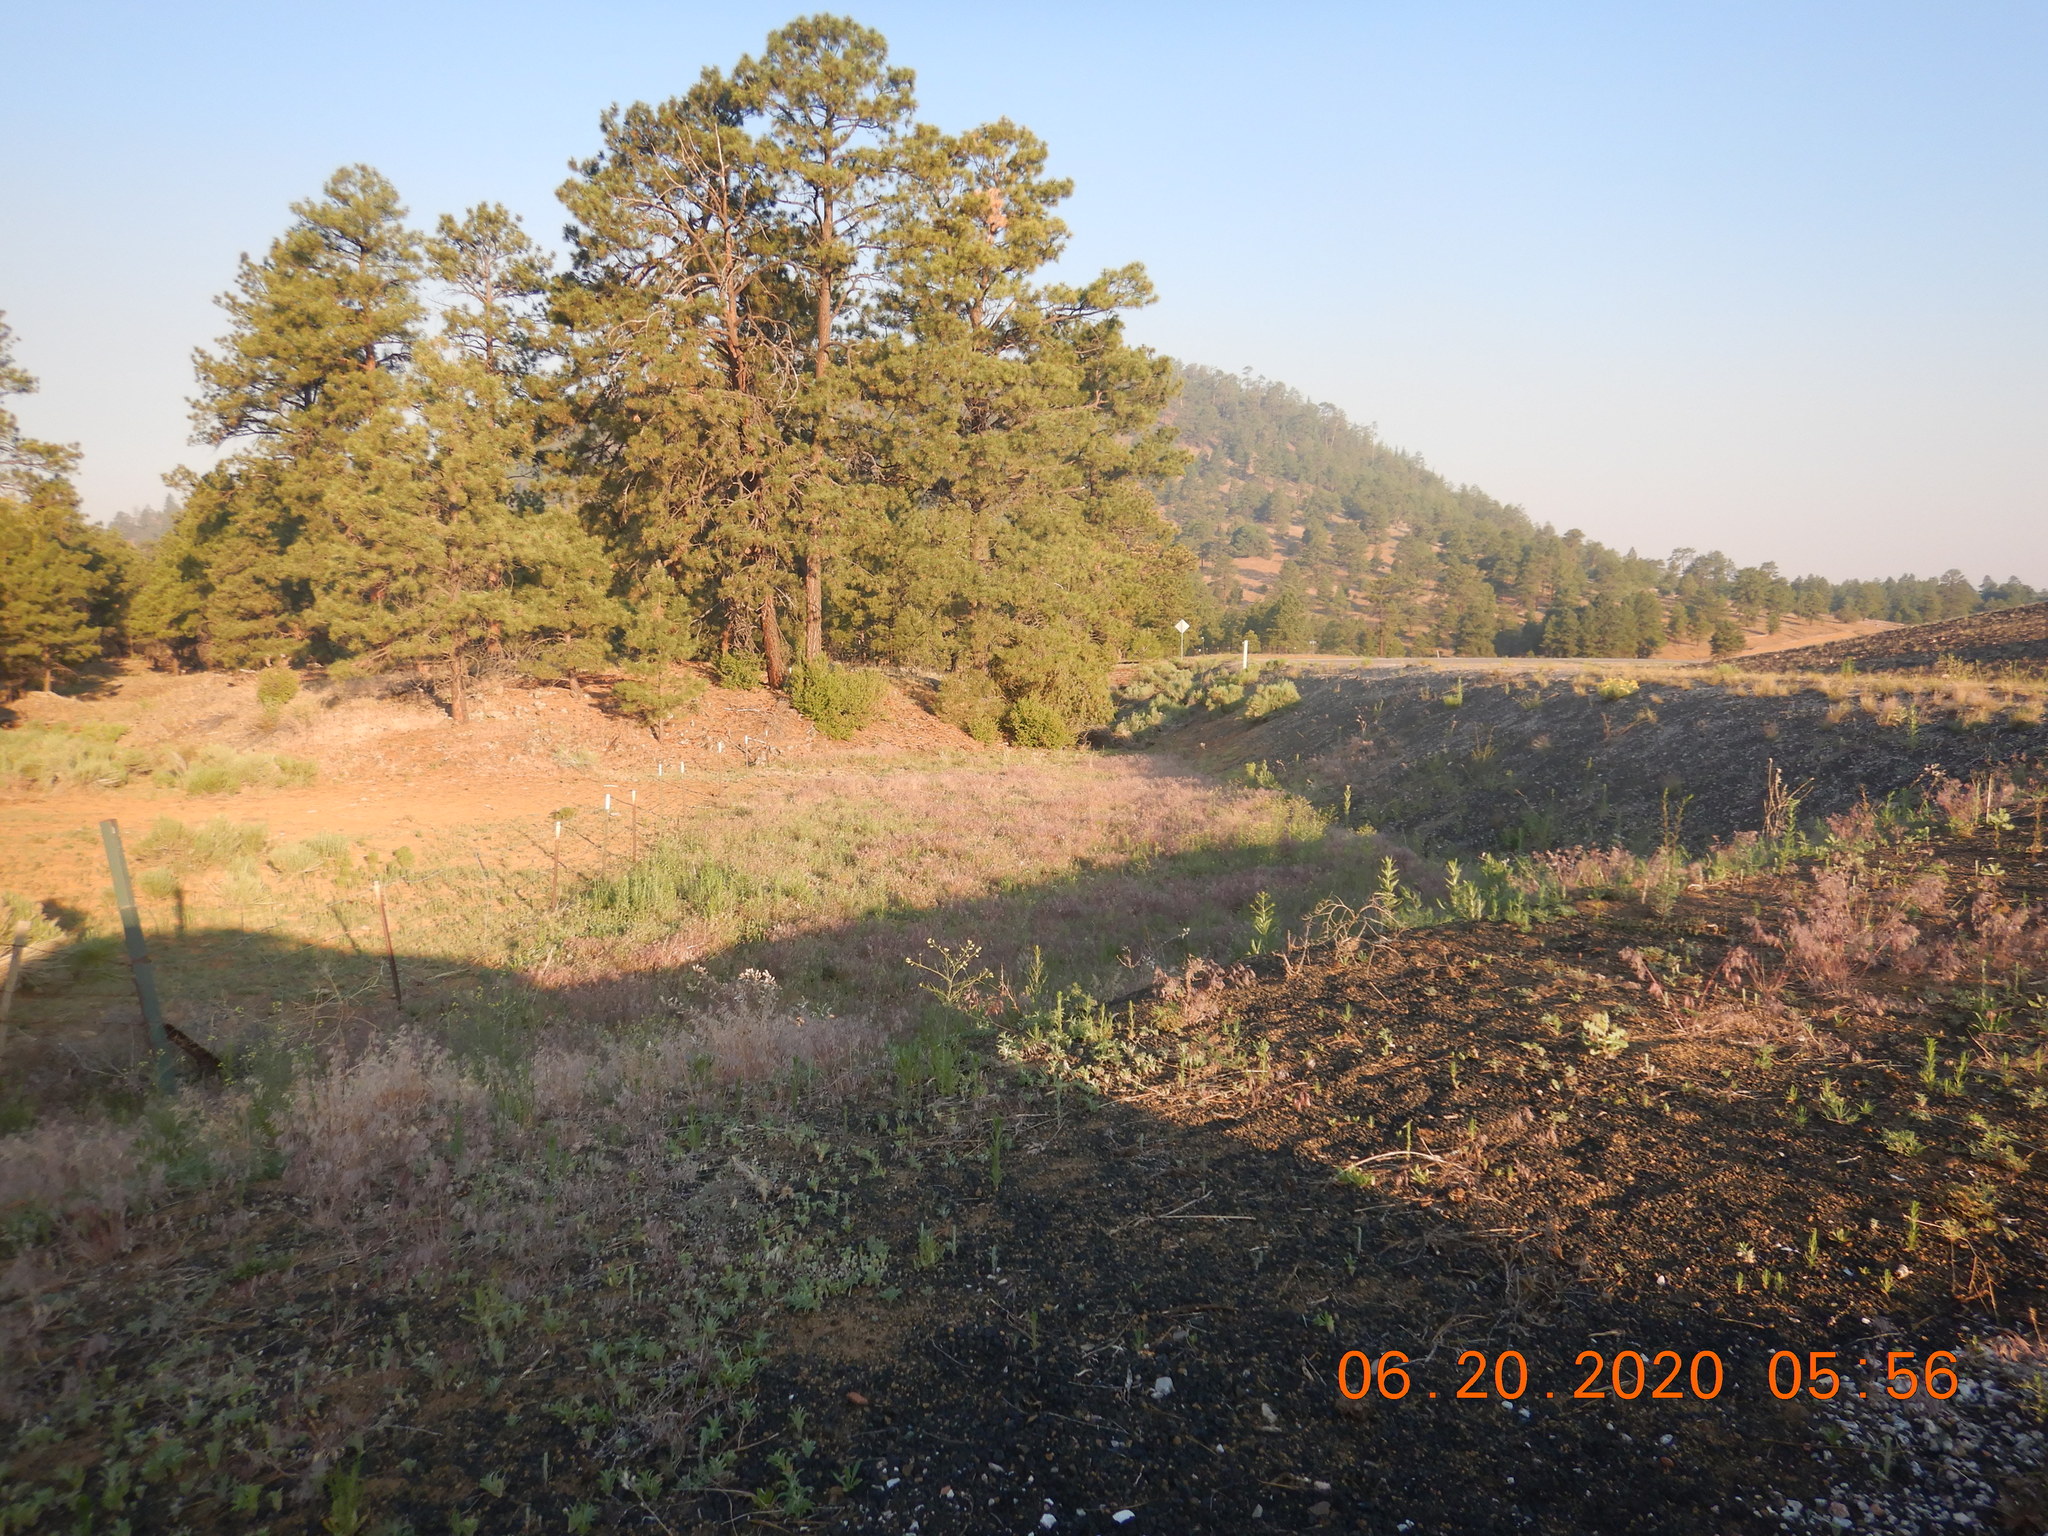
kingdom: Plantae
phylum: Tracheophyta
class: Liliopsida
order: Poales
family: Poaceae
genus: Bromus
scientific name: Bromus tectorum
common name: Cheatgrass
